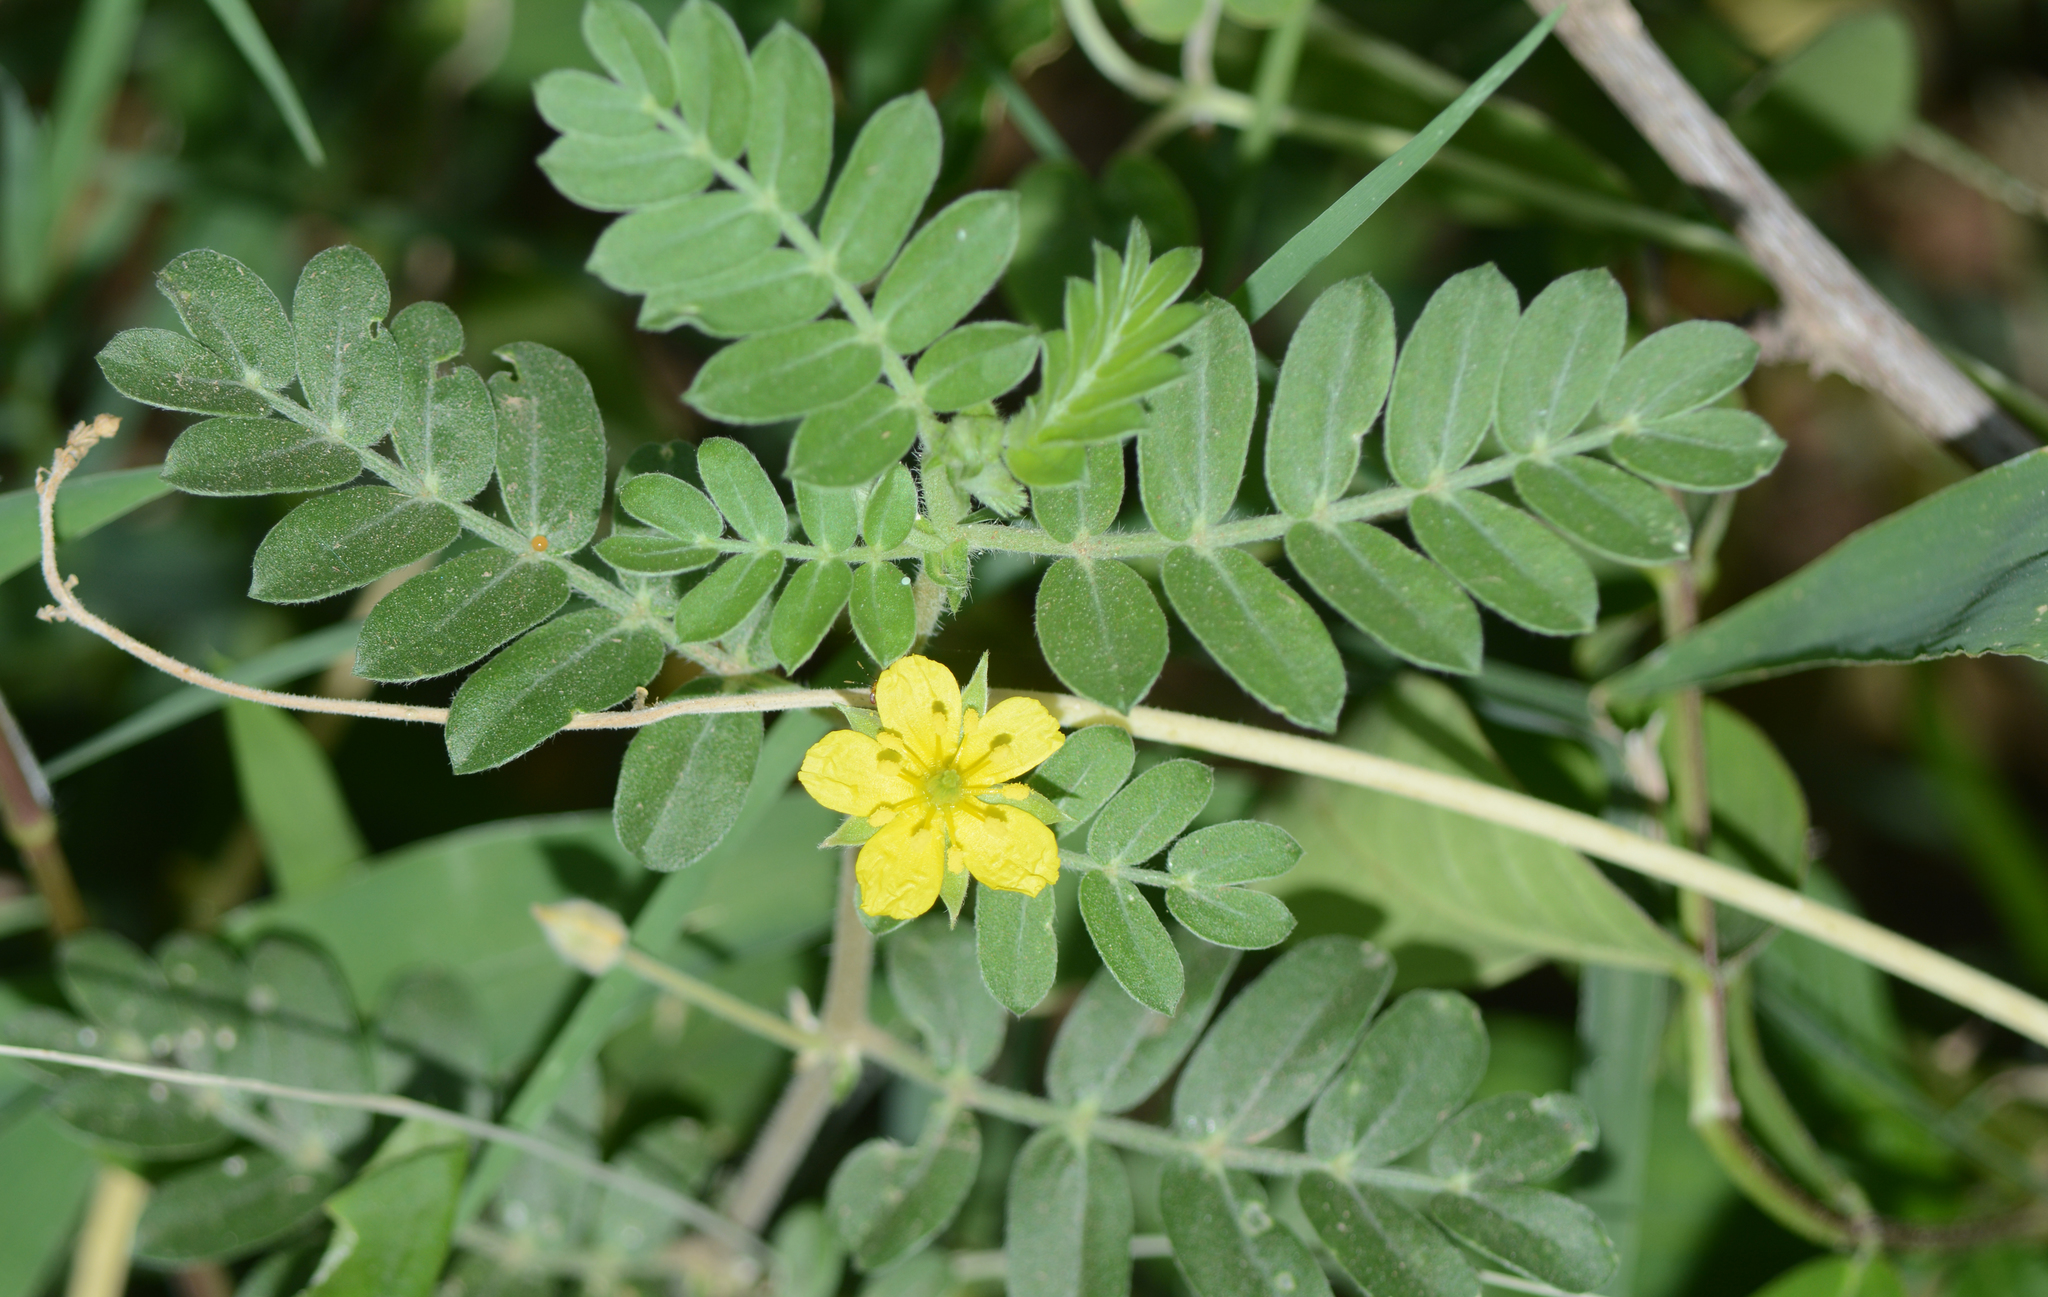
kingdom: Plantae
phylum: Tracheophyta
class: Magnoliopsida
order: Zygophyllales
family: Zygophyllaceae
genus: Tribulus
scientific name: Tribulus terrestris
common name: Puncturevine
